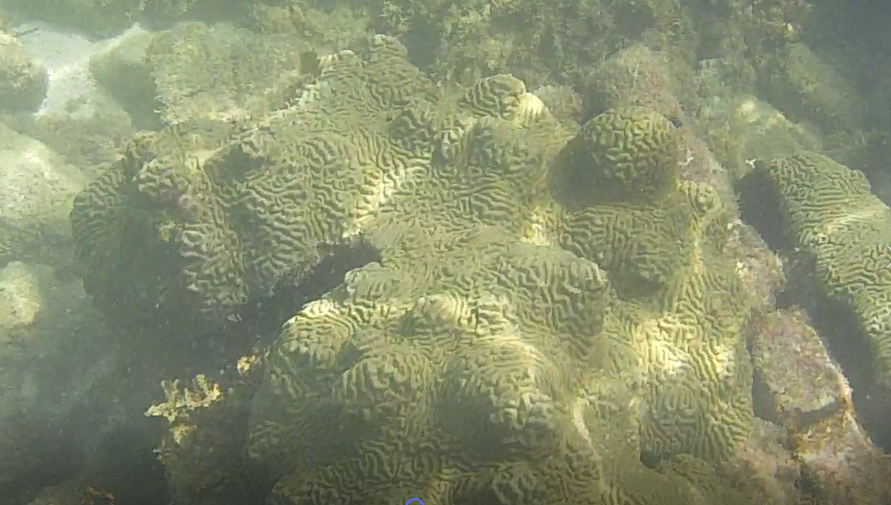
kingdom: Animalia
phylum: Cnidaria
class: Anthozoa
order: Scleractinia
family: Faviidae
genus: Pseudodiploria
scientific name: Pseudodiploria clivosa
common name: Knobby brain coral
